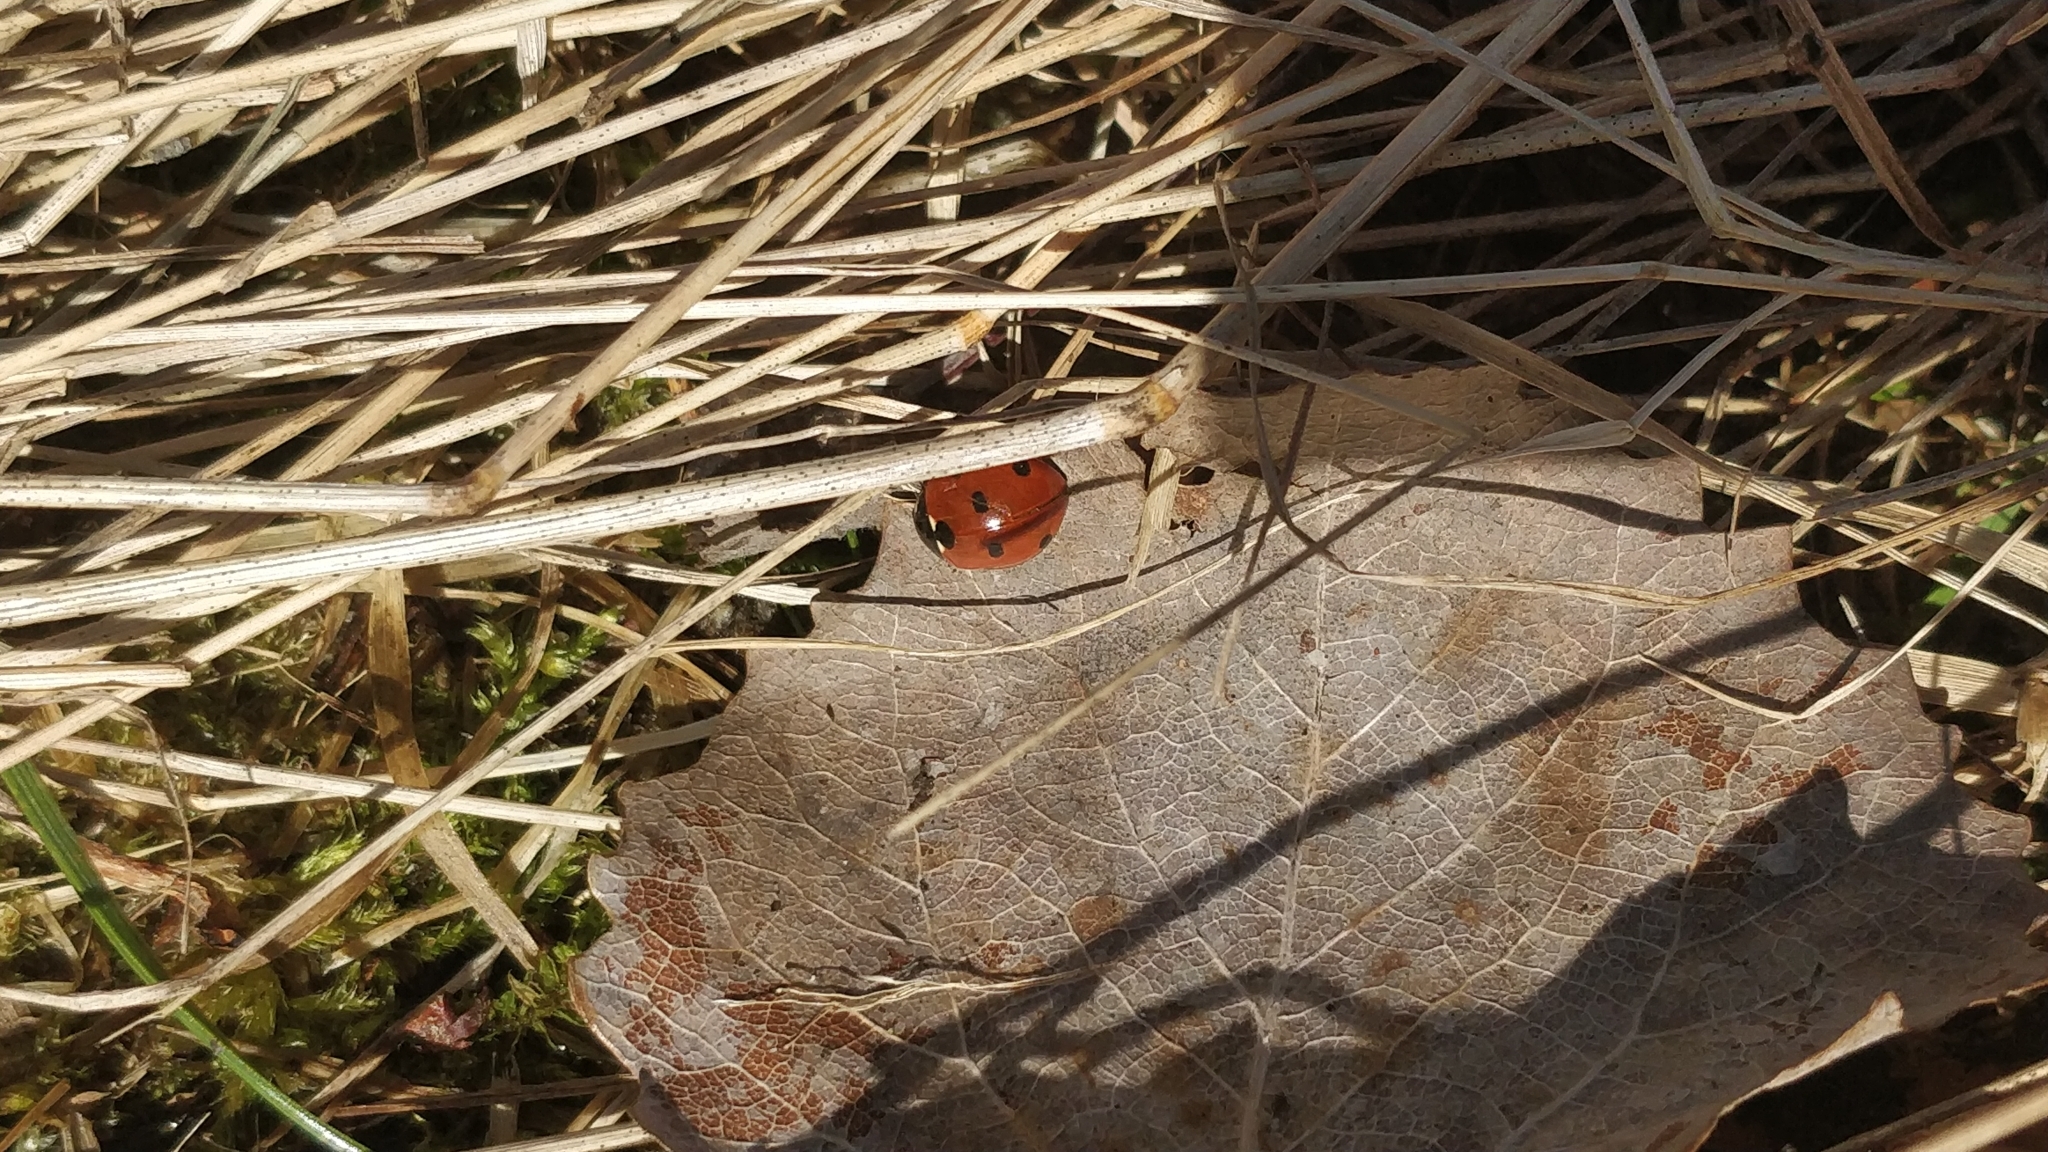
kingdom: Animalia
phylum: Arthropoda
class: Insecta
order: Coleoptera
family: Coccinellidae
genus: Coccinella
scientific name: Coccinella septempunctata
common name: Sevenspotted lady beetle
